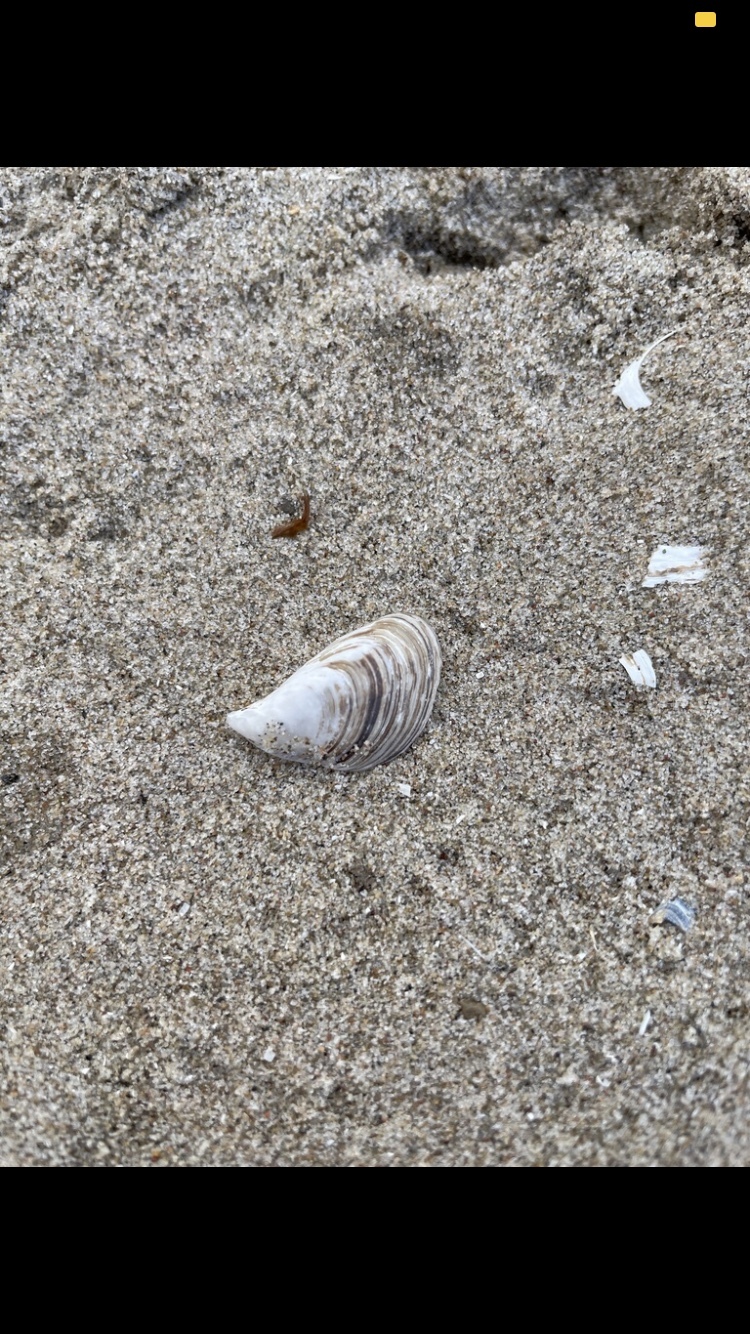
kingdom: Animalia
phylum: Mollusca
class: Bivalvia
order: Myida
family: Dreissenidae
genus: Dreissena
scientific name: Dreissena bugensis
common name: Quagga mussel
